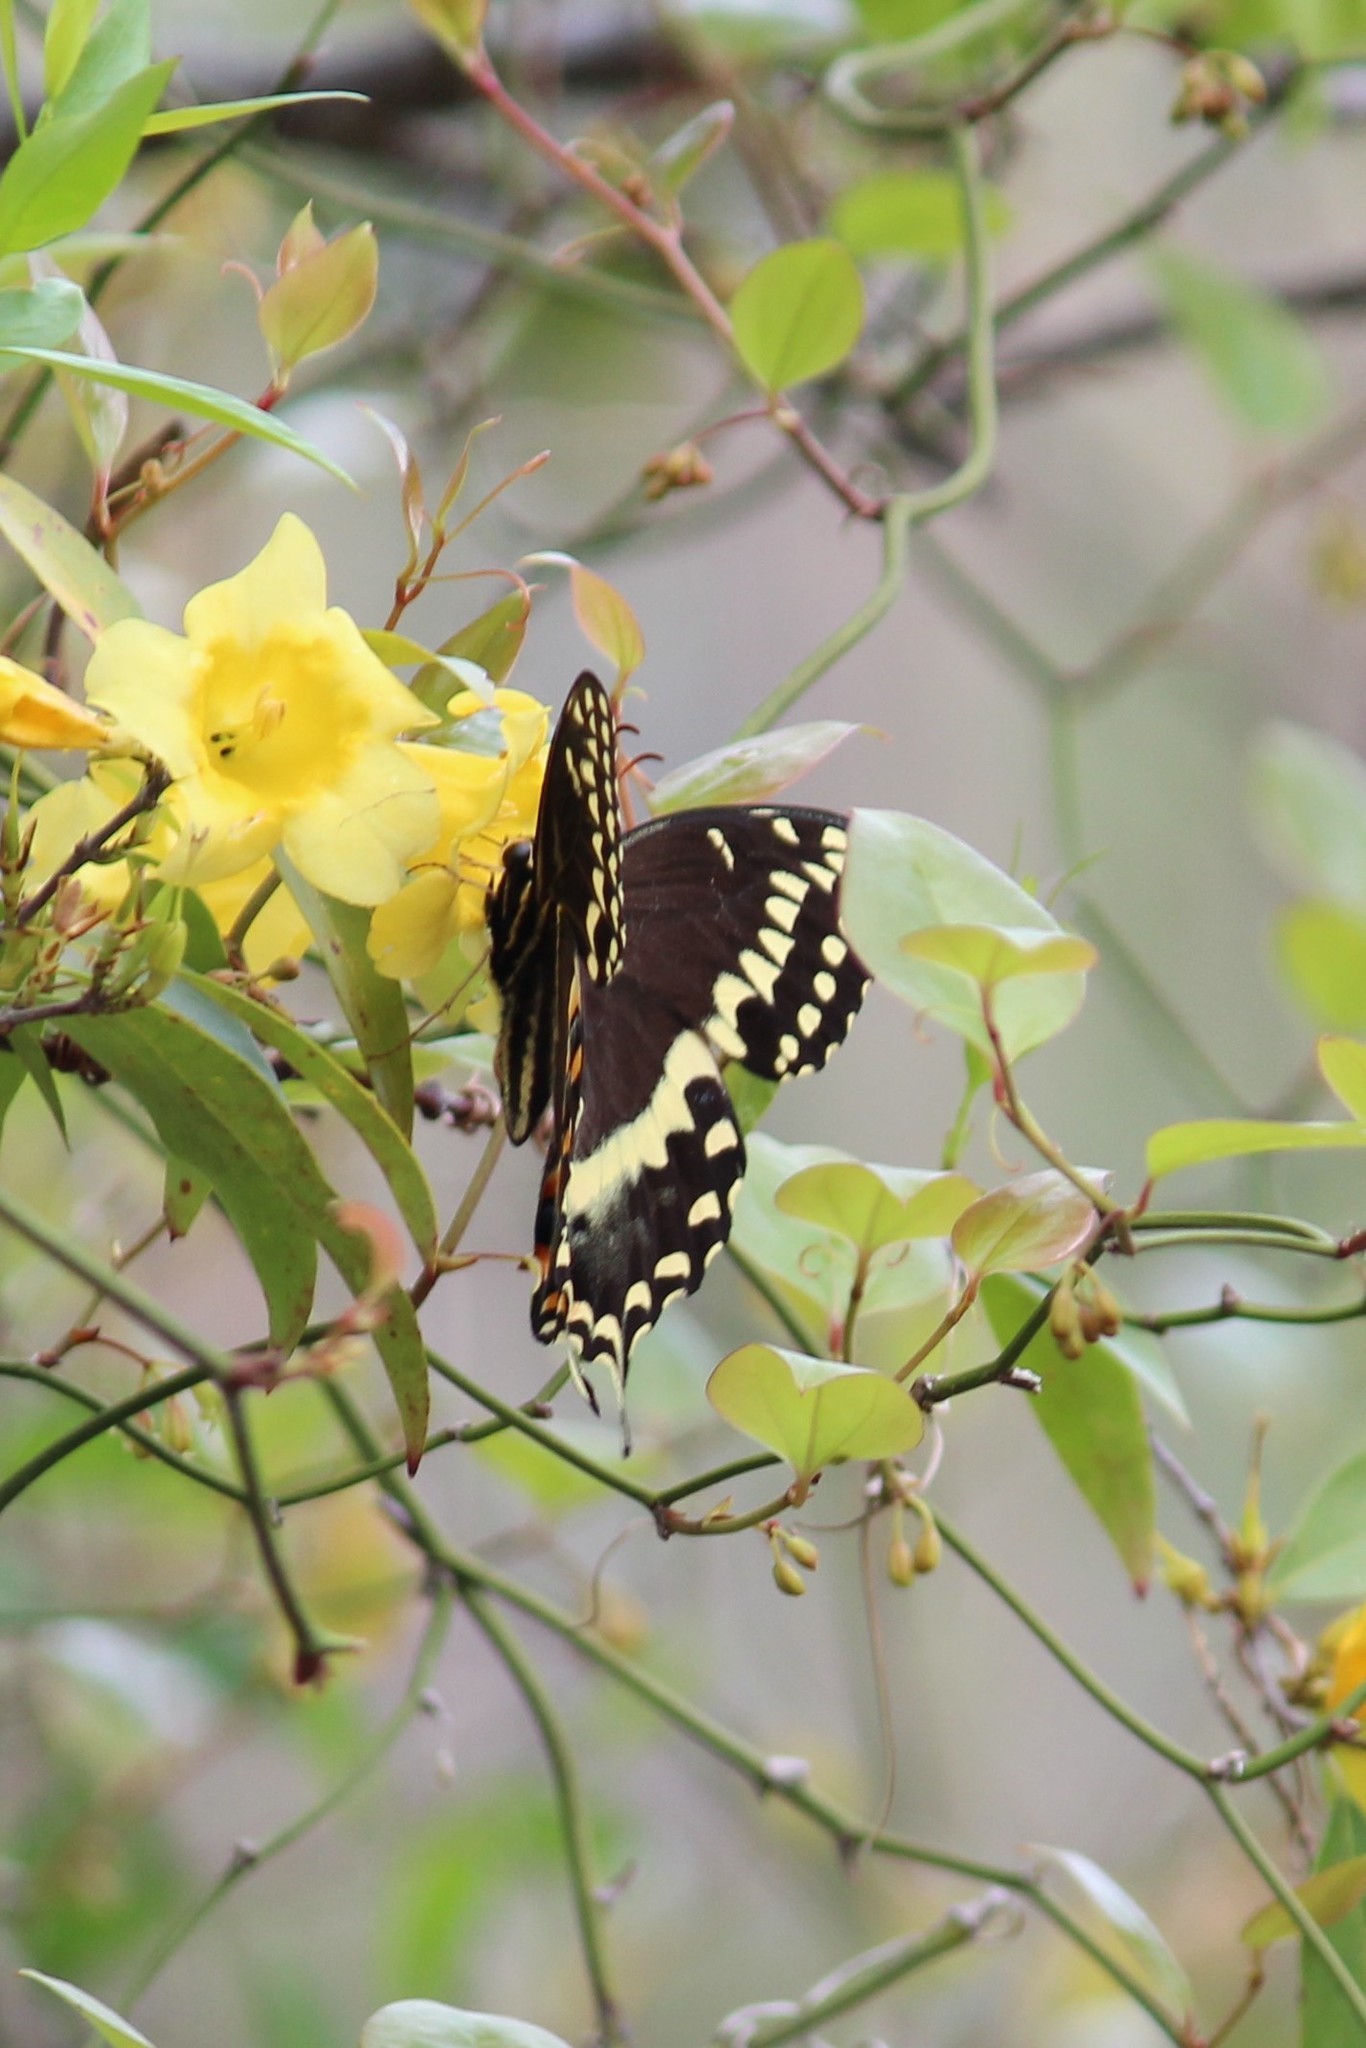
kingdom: Animalia
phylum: Arthropoda
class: Insecta
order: Lepidoptera
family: Papilionidae
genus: Papilio
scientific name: Papilio palamedes
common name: Palamedes swallowtail
